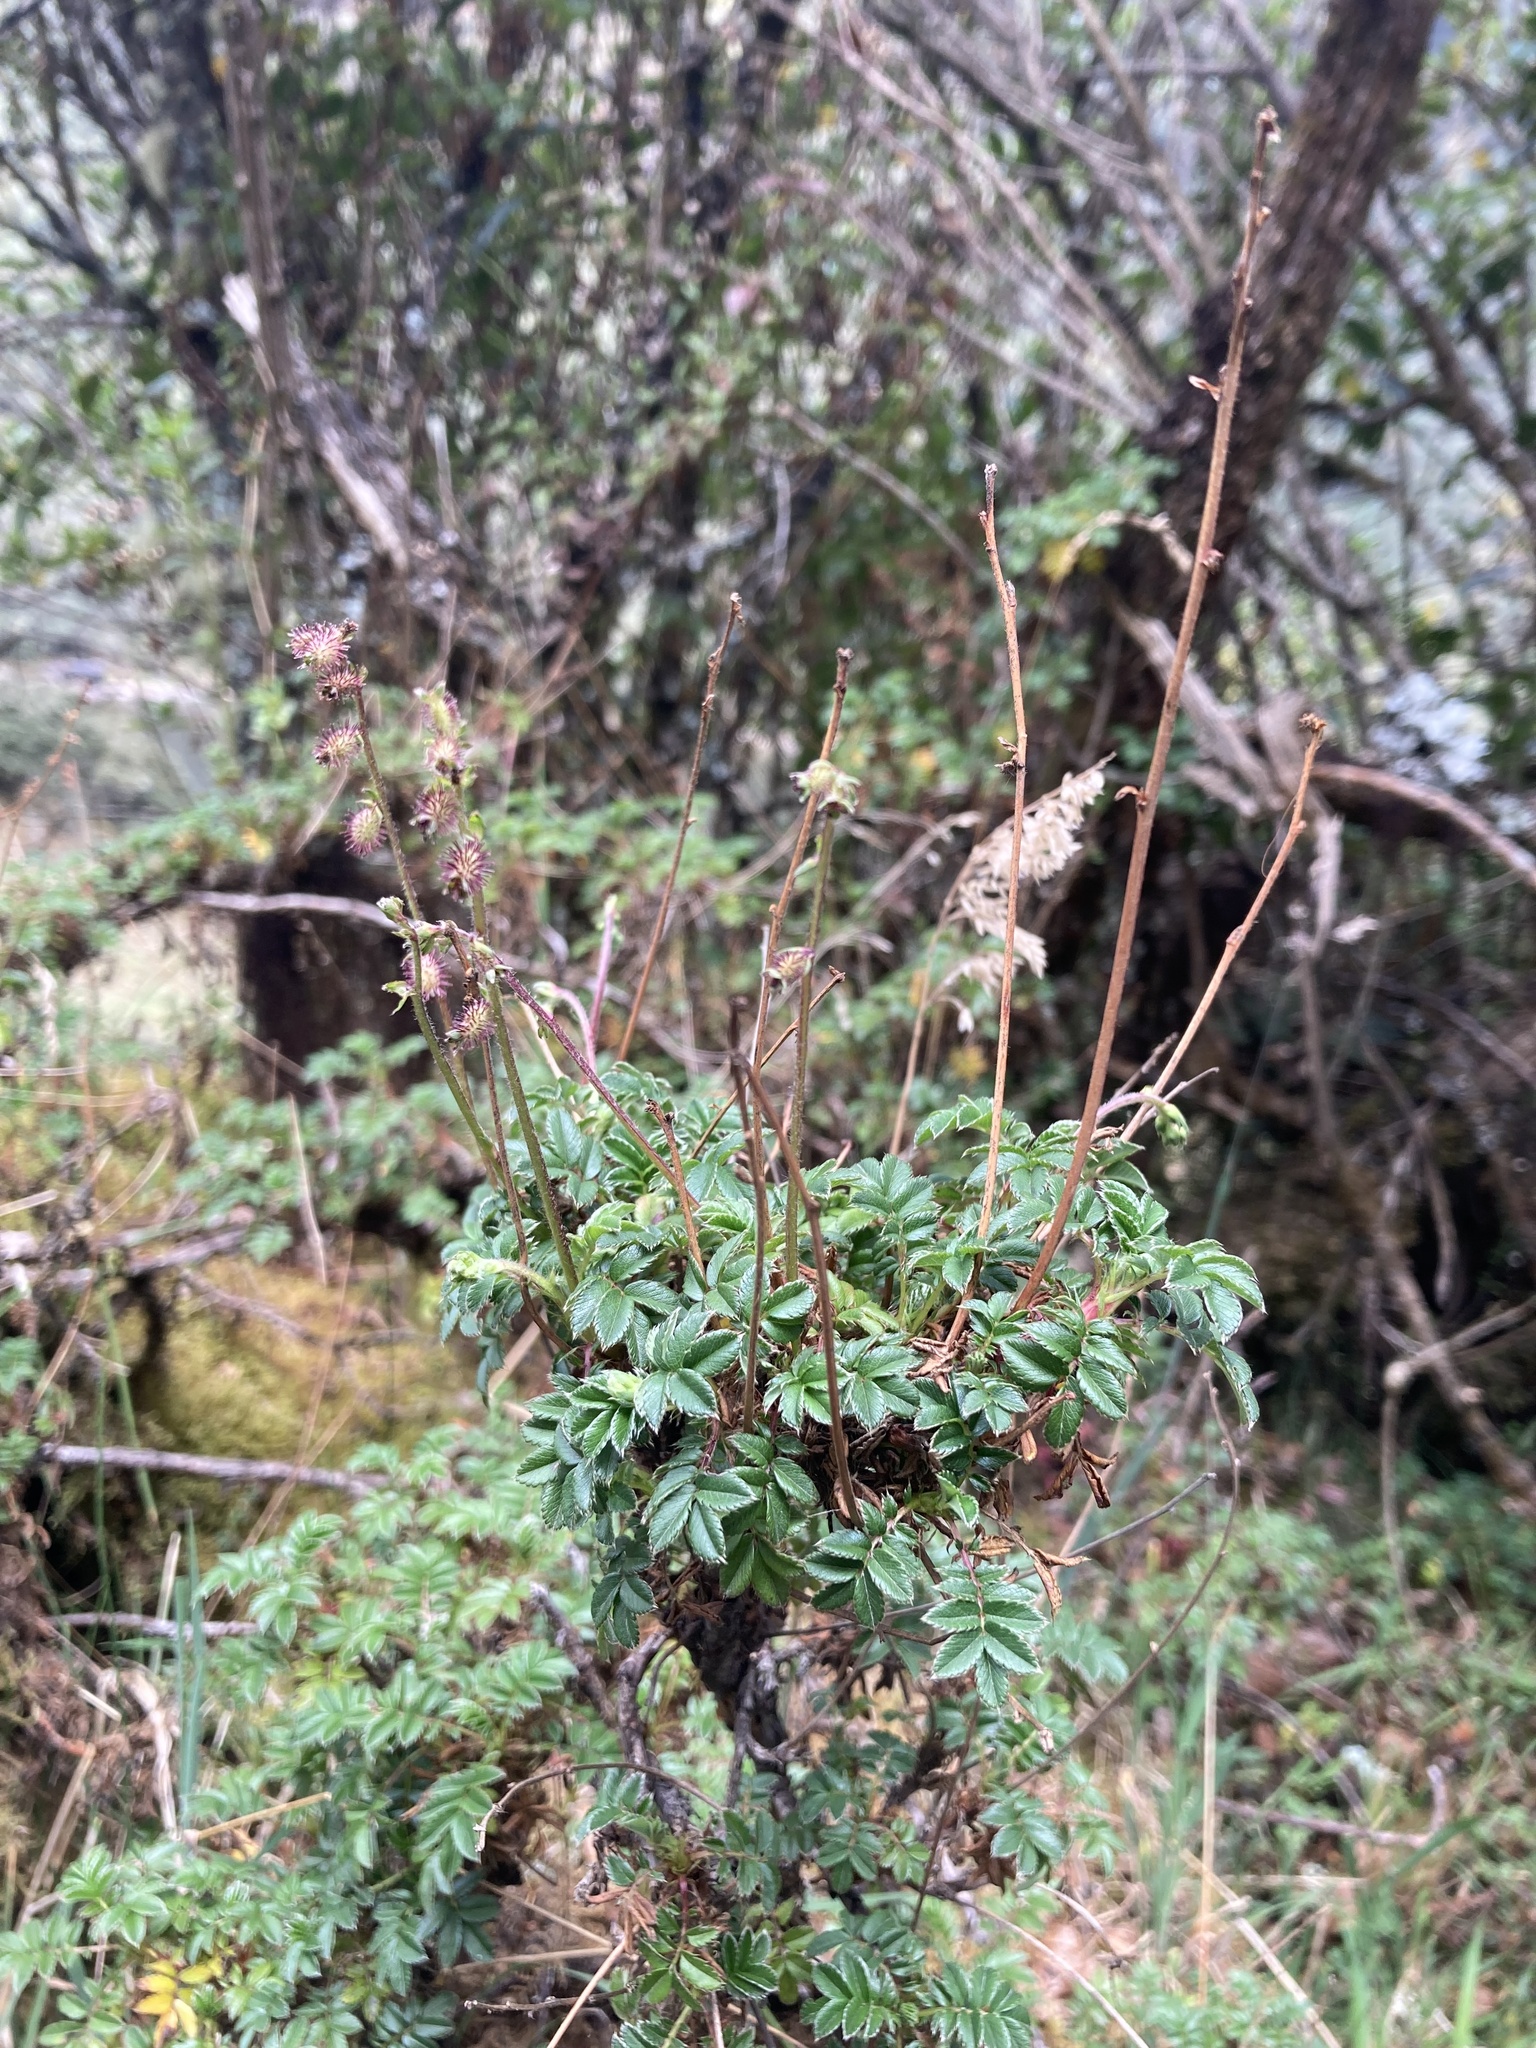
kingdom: Plantae
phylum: Tracheophyta
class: Magnoliopsida
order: Rosales
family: Rosaceae
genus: Acaena
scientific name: Acaena elongata
